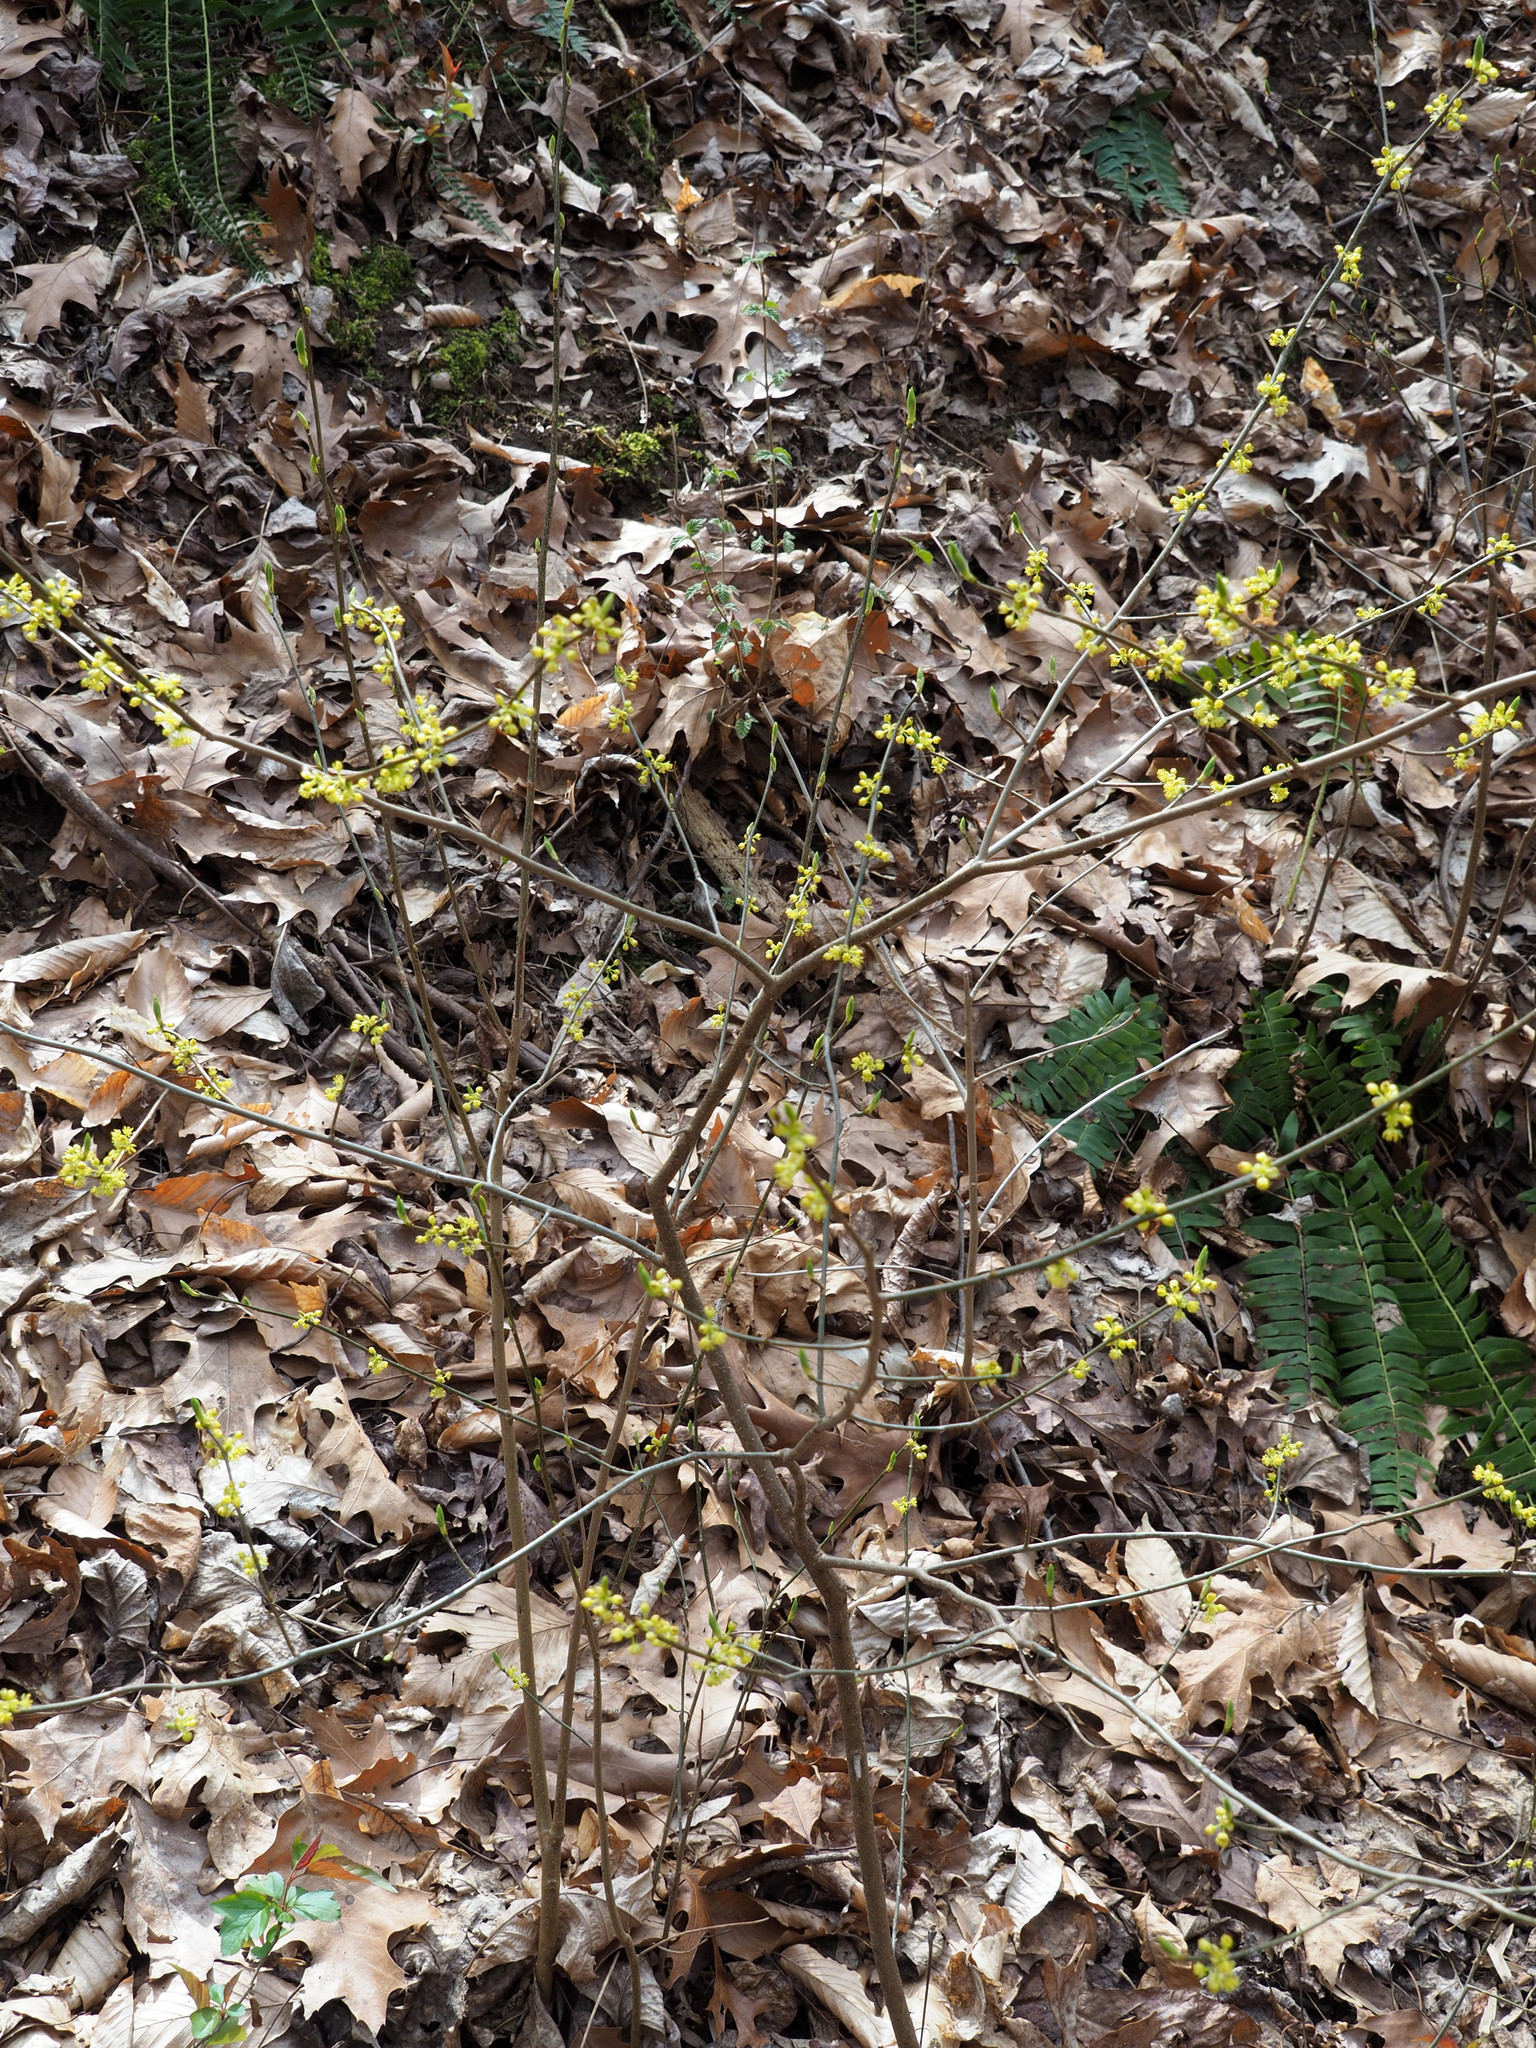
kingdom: Plantae
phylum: Tracheophyta
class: Magnoliopsida
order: Laurales
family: Lauraceae
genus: Lindera
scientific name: Lindera benzoin
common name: Spicebush
